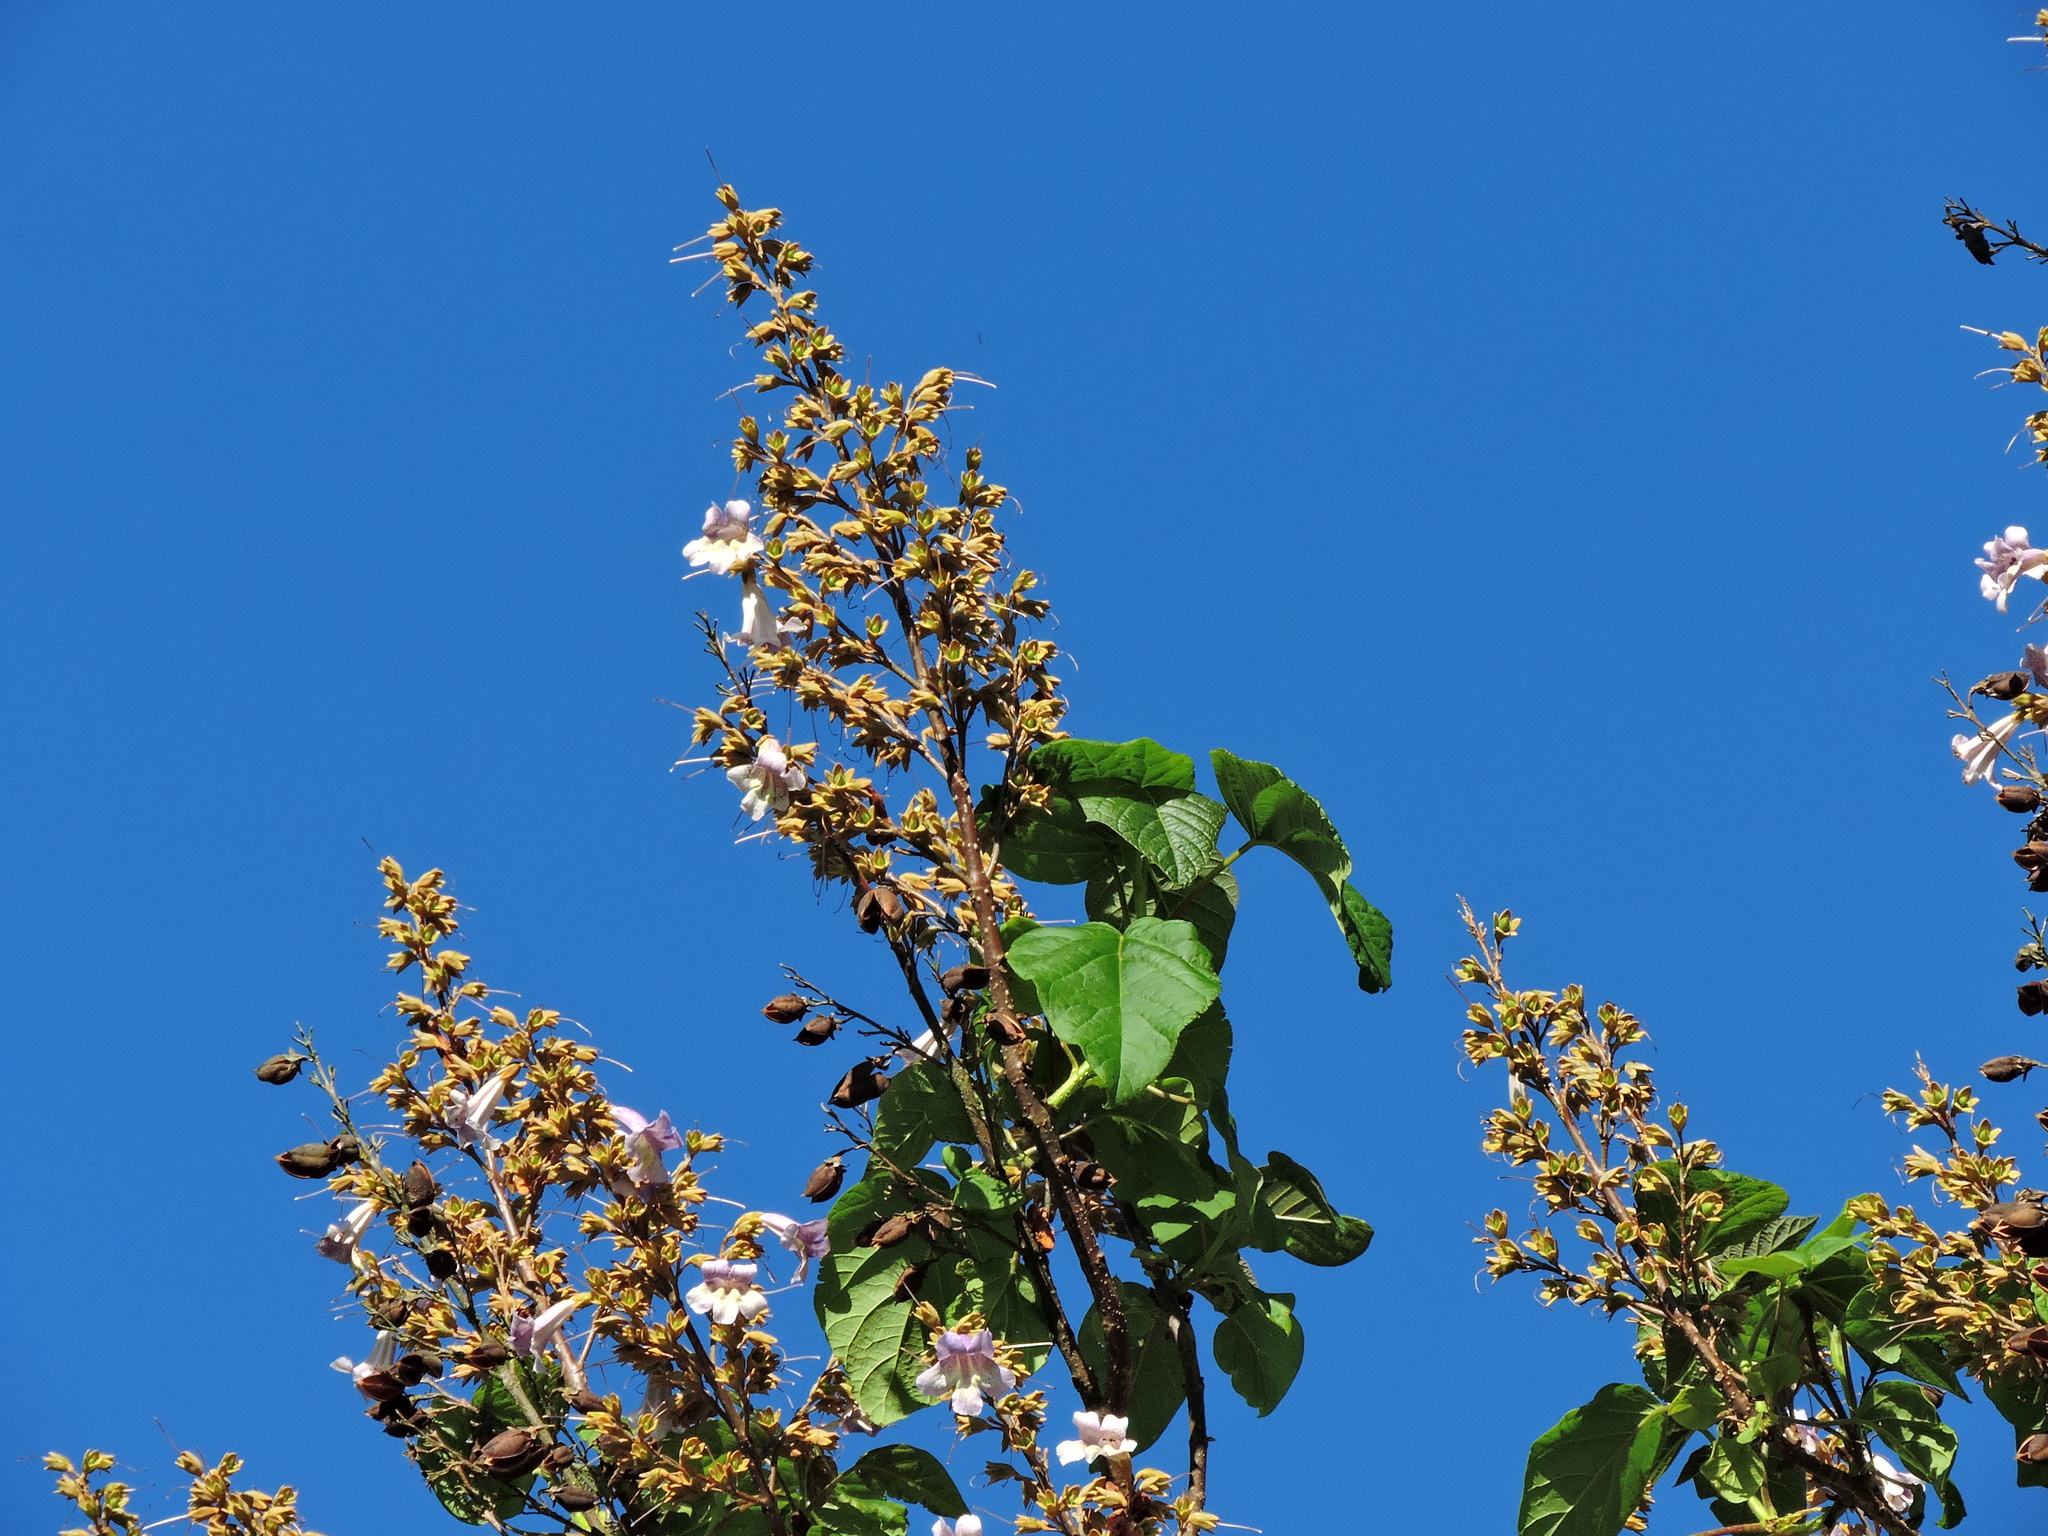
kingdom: Plantae
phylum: Tracheophyta
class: Magnoliopsida
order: Lamiales
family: Paulowniaceae
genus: Paulownia
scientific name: Paulownia taiwaniana
